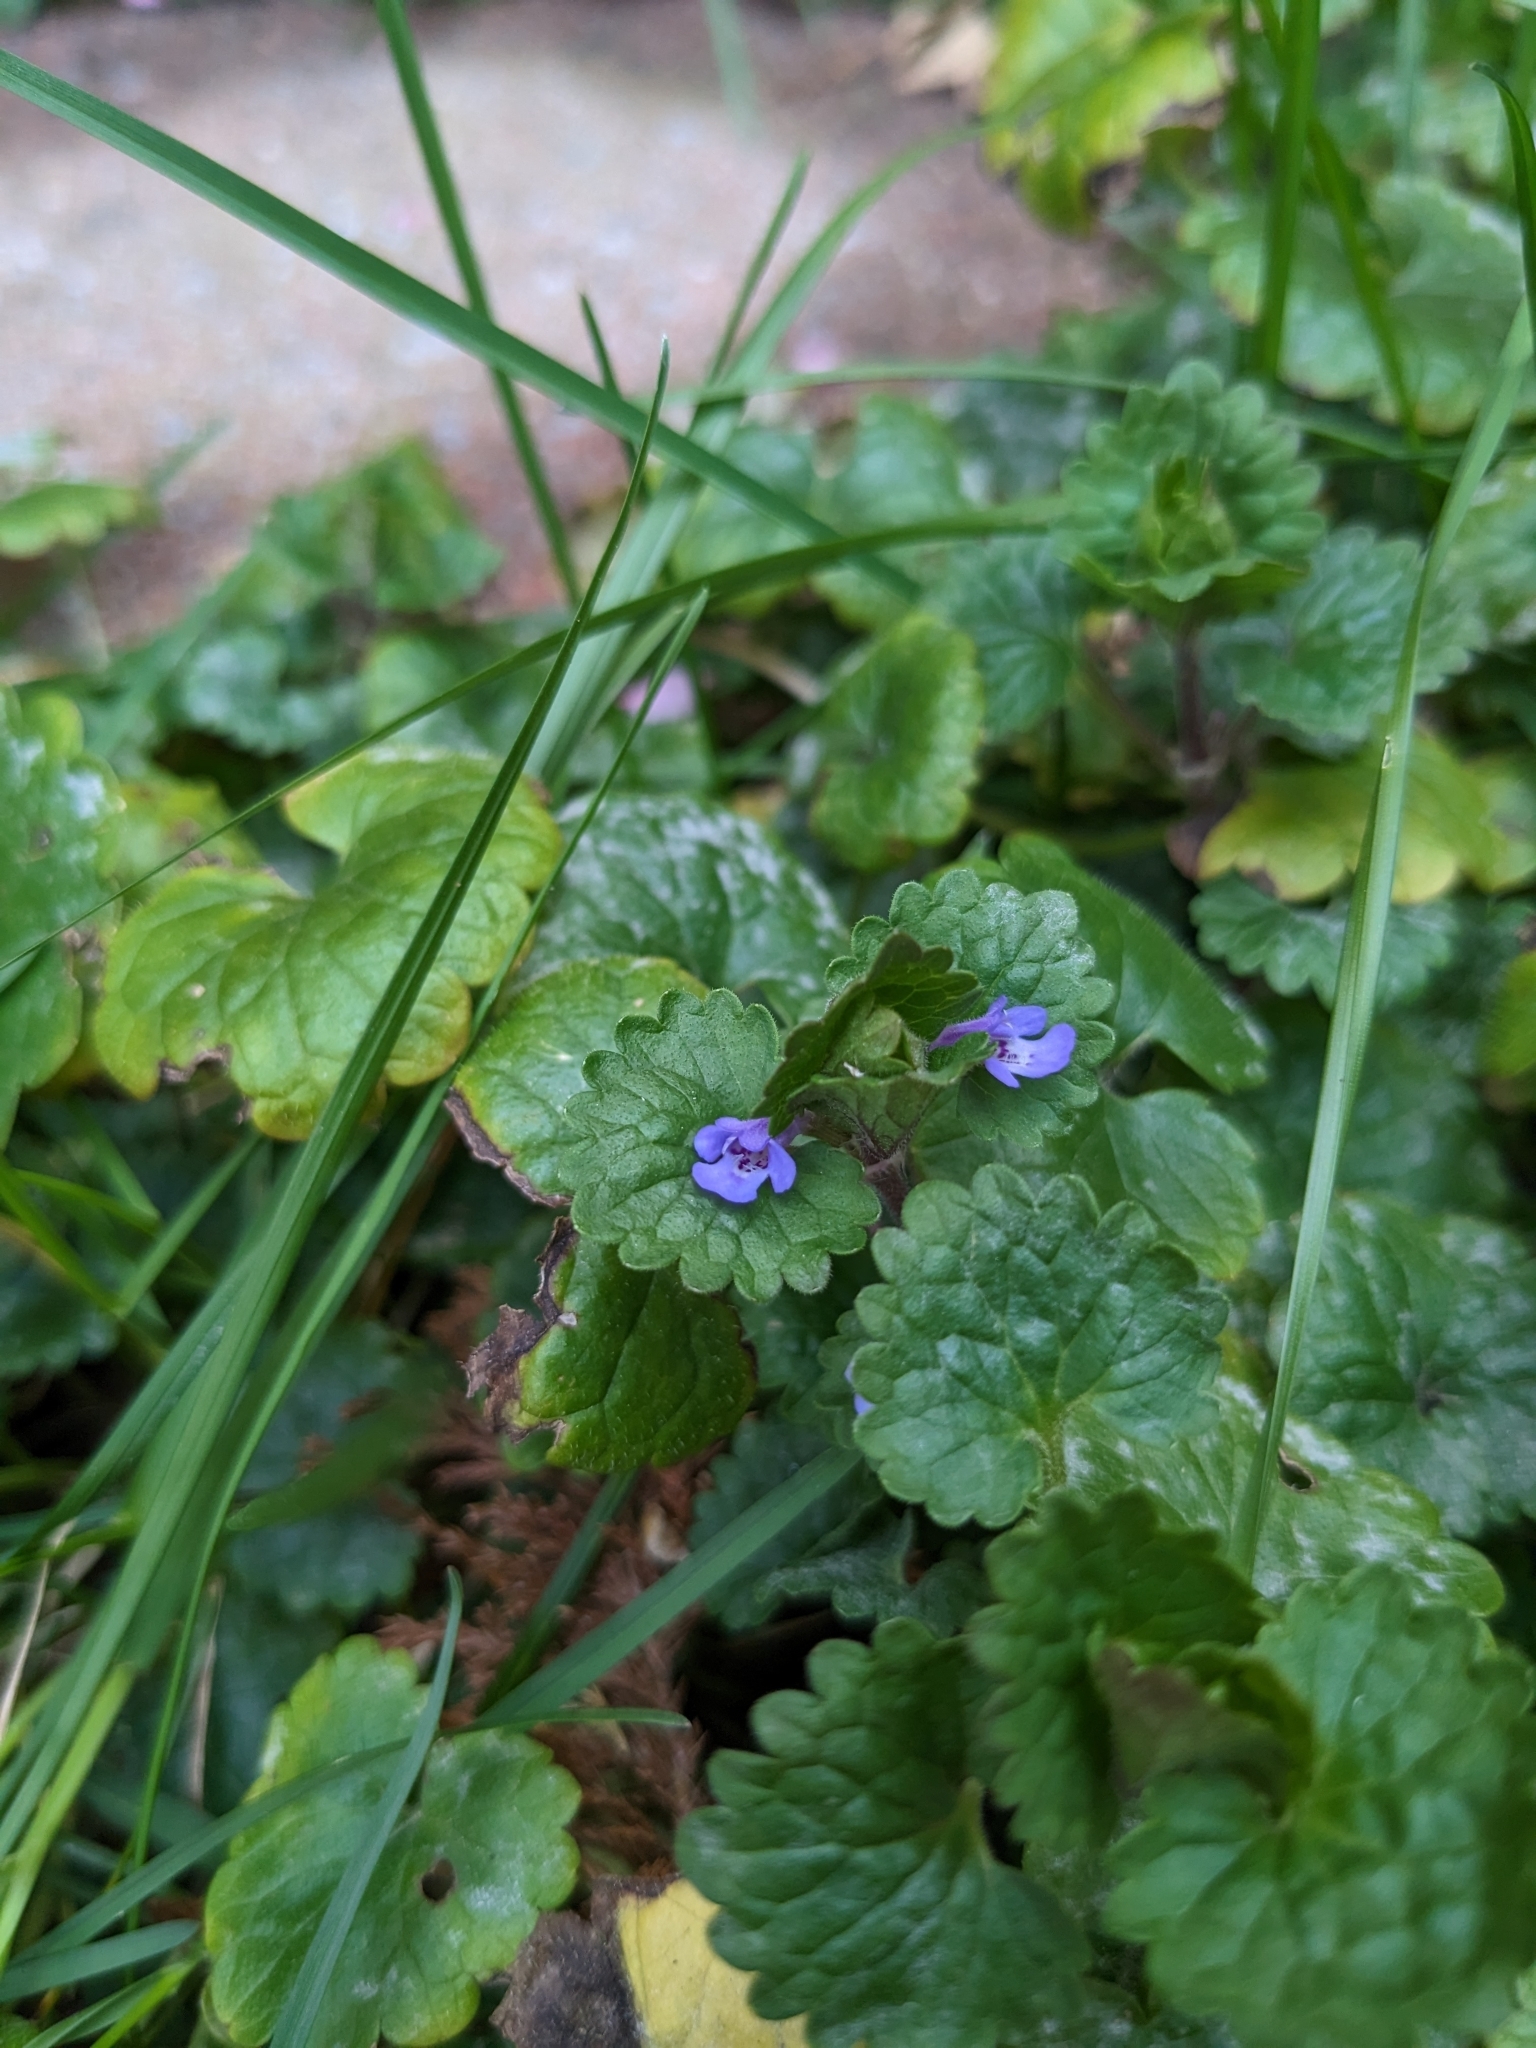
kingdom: Plantae
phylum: Tracheophyta
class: Magnoliopsida
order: Lamiales
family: Lamiaceae
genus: Glechoma
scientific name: Glechoma hederacea
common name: Ground ivy
